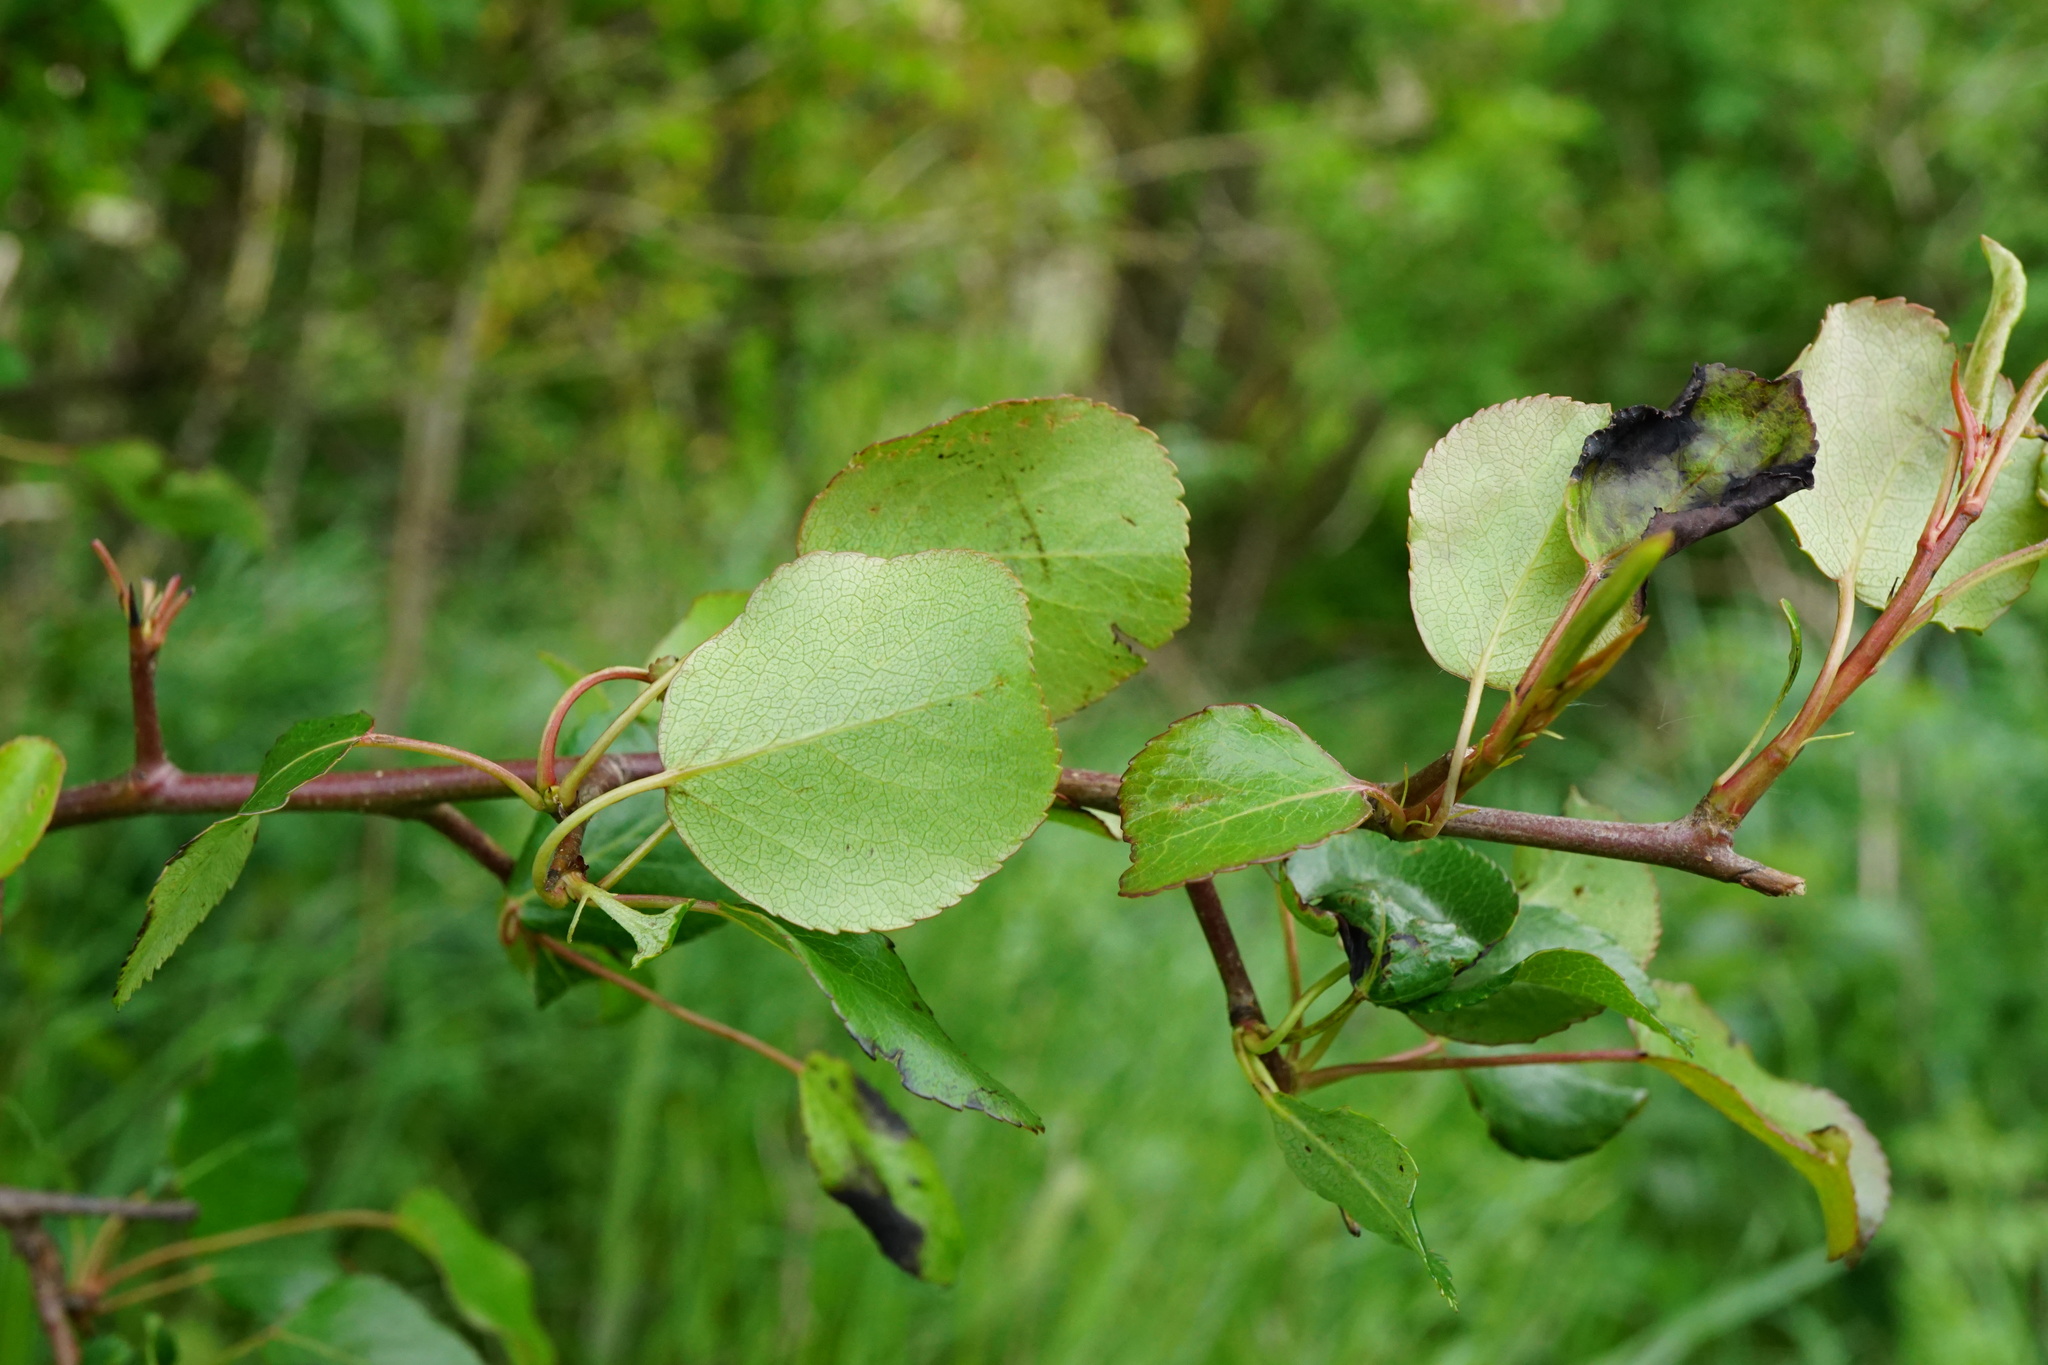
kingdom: Plantae
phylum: Tracheophyta
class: Magnoliopsida
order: Rosales
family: Rosaceae
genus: Pyrus
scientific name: Pyrus
